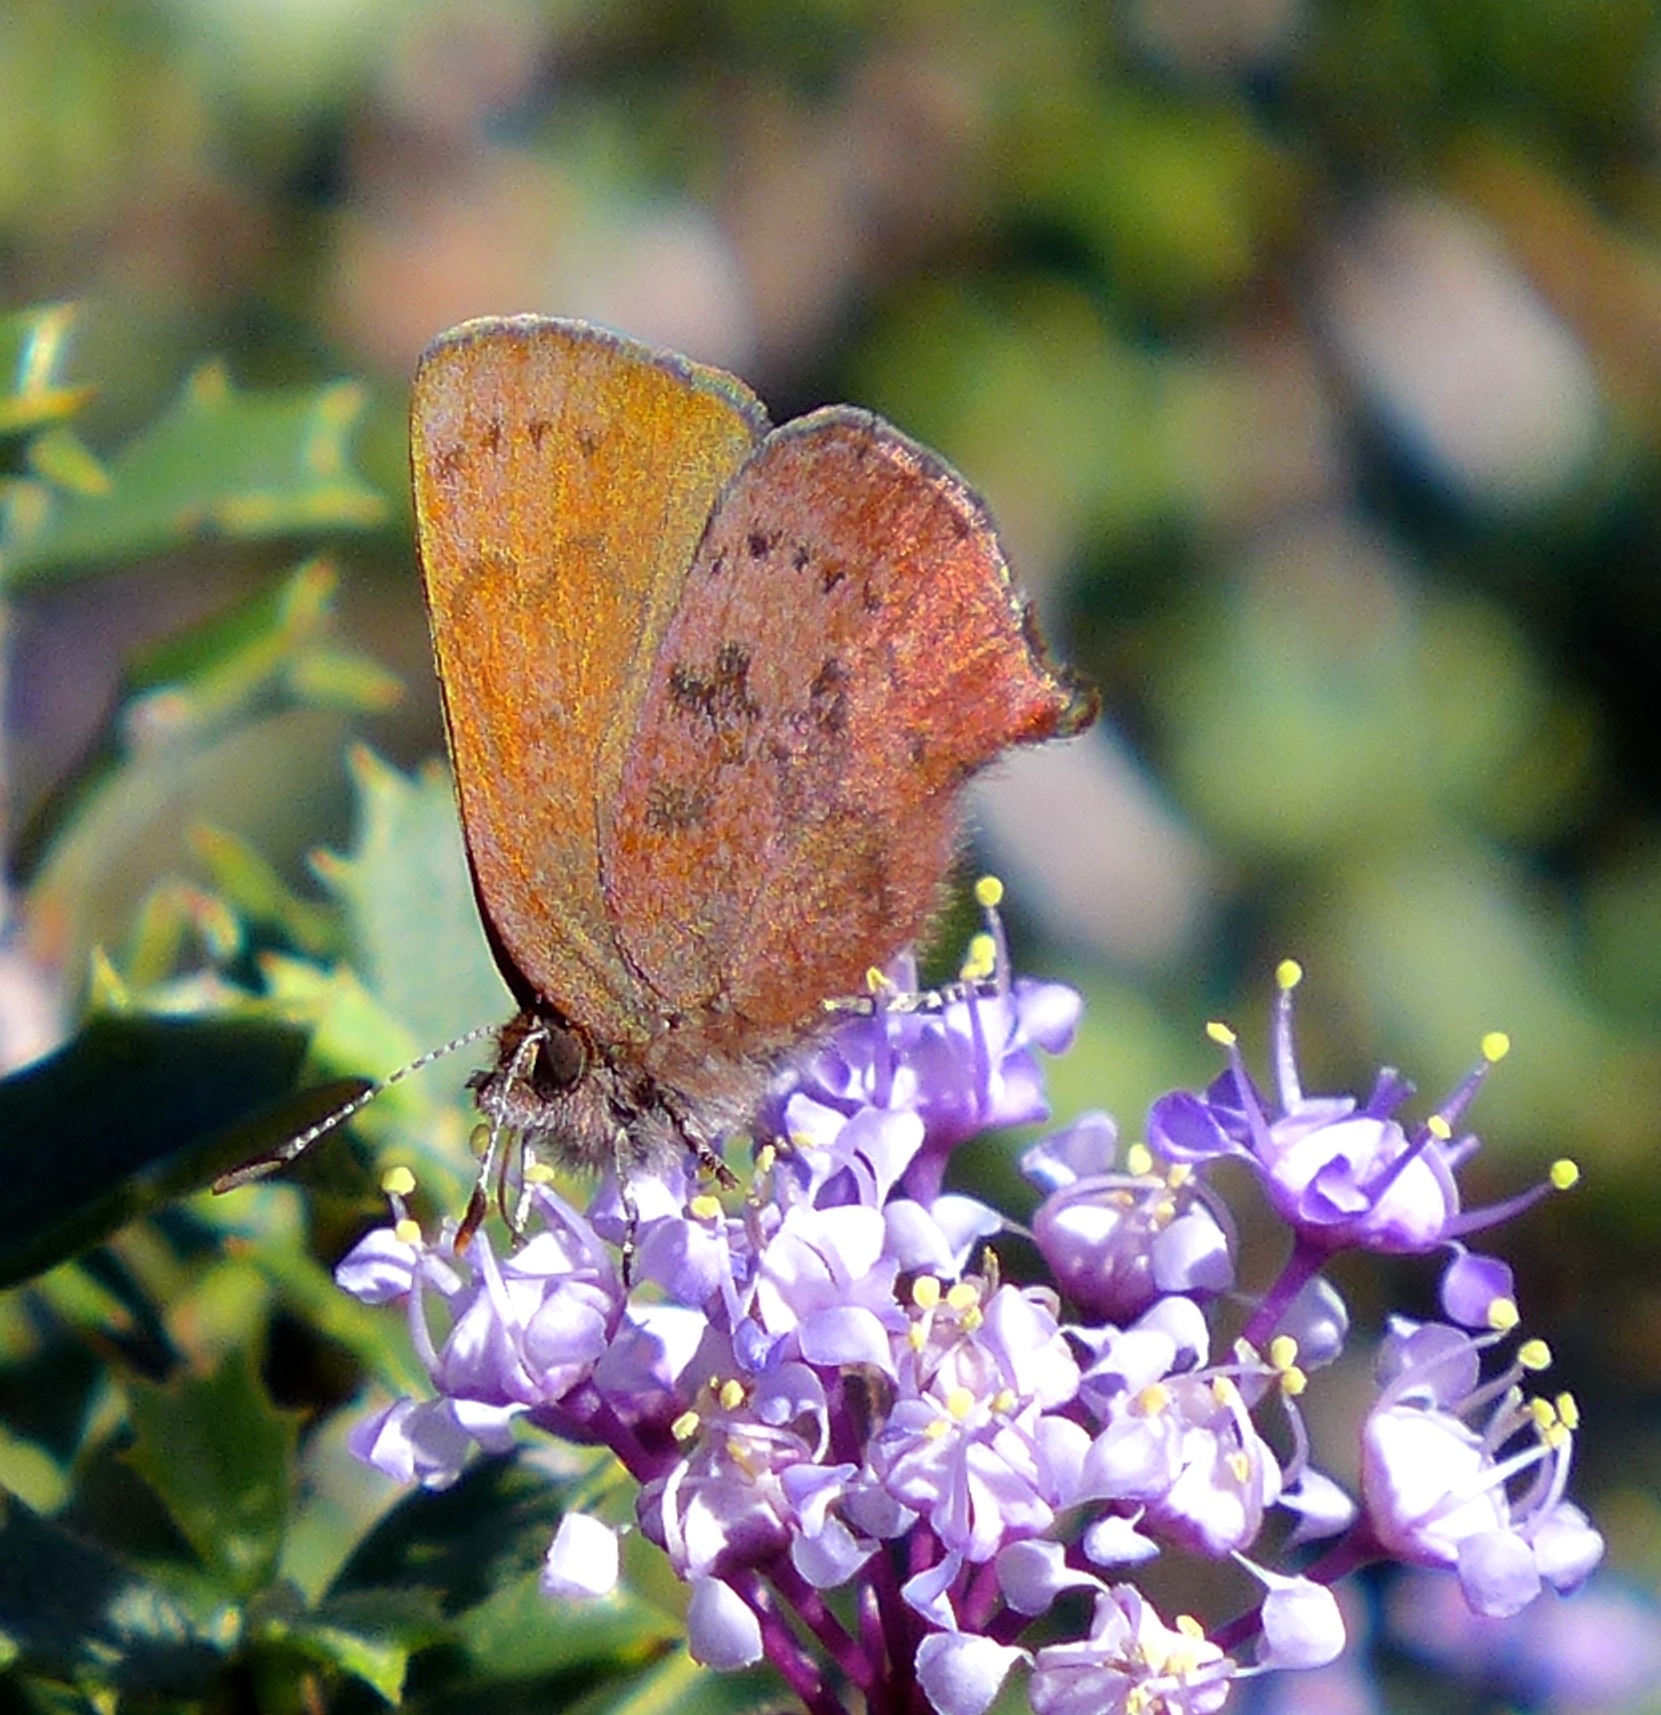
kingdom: Animalia
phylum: Arthropoda
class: Insecta
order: Lepidoptera
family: Lycaenidae
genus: Incisalia
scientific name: Incisalia irioides
